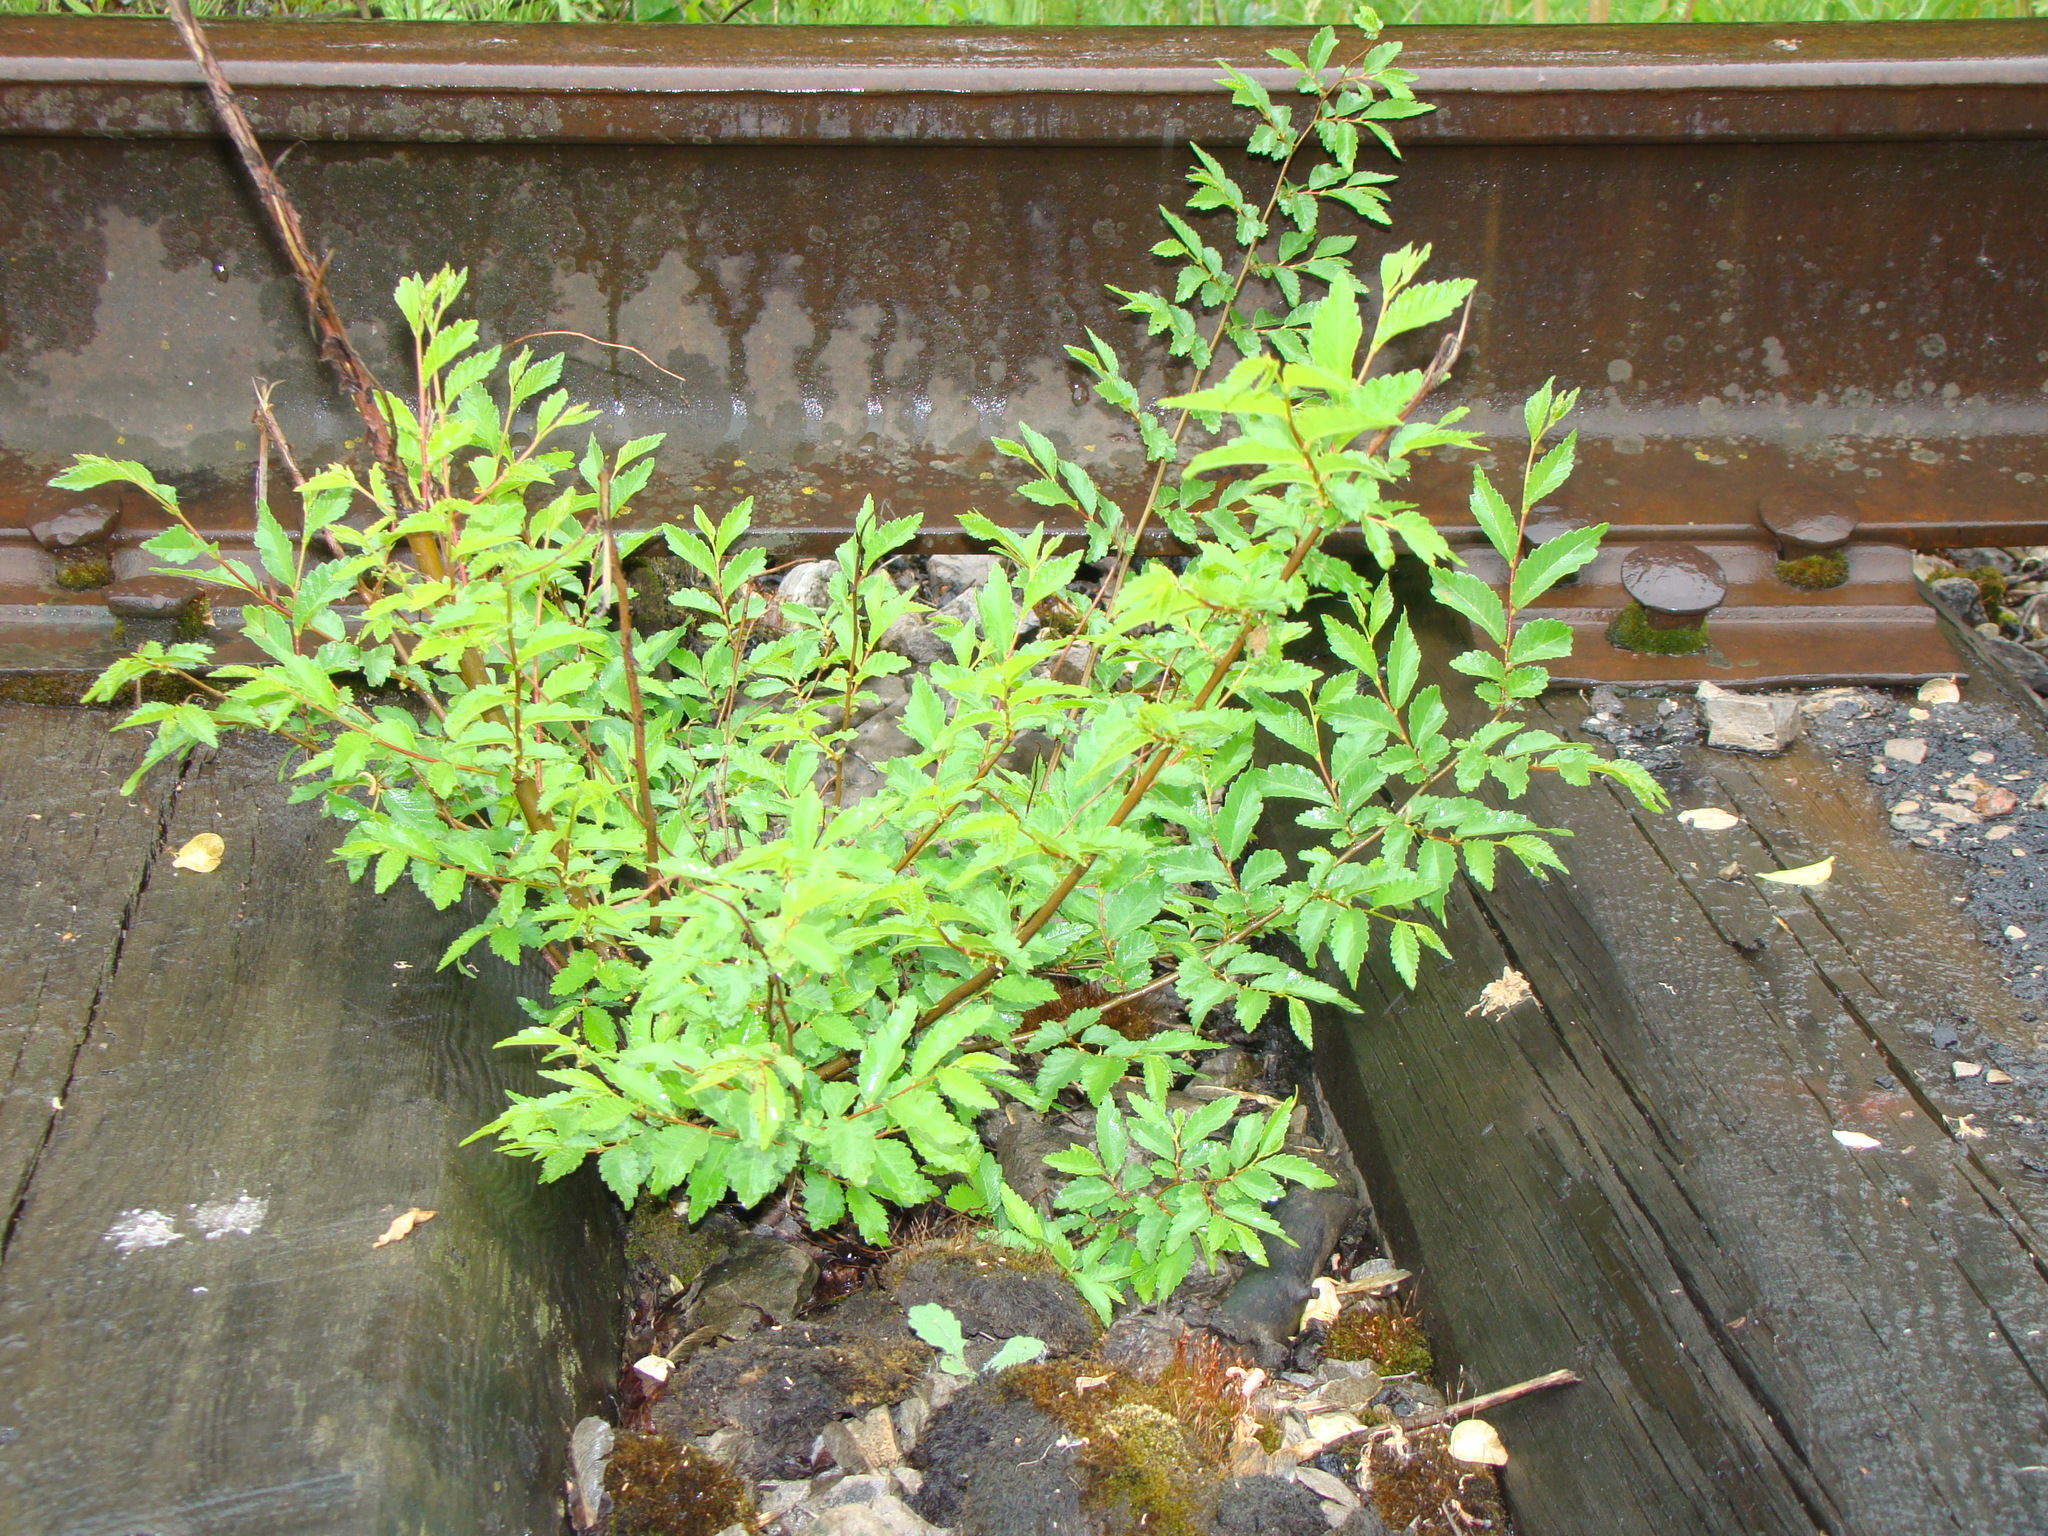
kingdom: Plantae
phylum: Tracheophyta
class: Magnoliopsida
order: Rosales
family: Ulmaceae
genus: Ulmus
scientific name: Ulmus pumila
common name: Siberian elm
